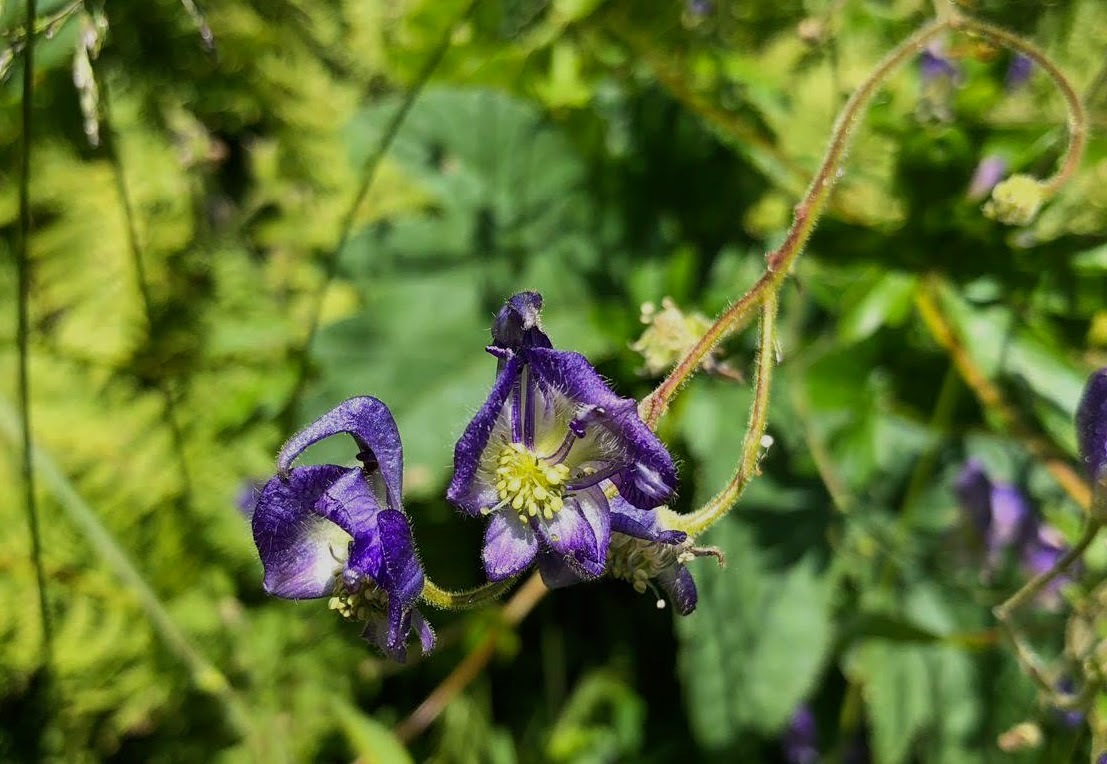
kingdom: Plantae
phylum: Tracheophyta
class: Magnoliopsida
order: Ranunculales
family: Ranunculaceae
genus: Aconitum
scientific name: Aconitum columbianum
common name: Columbia aconite
